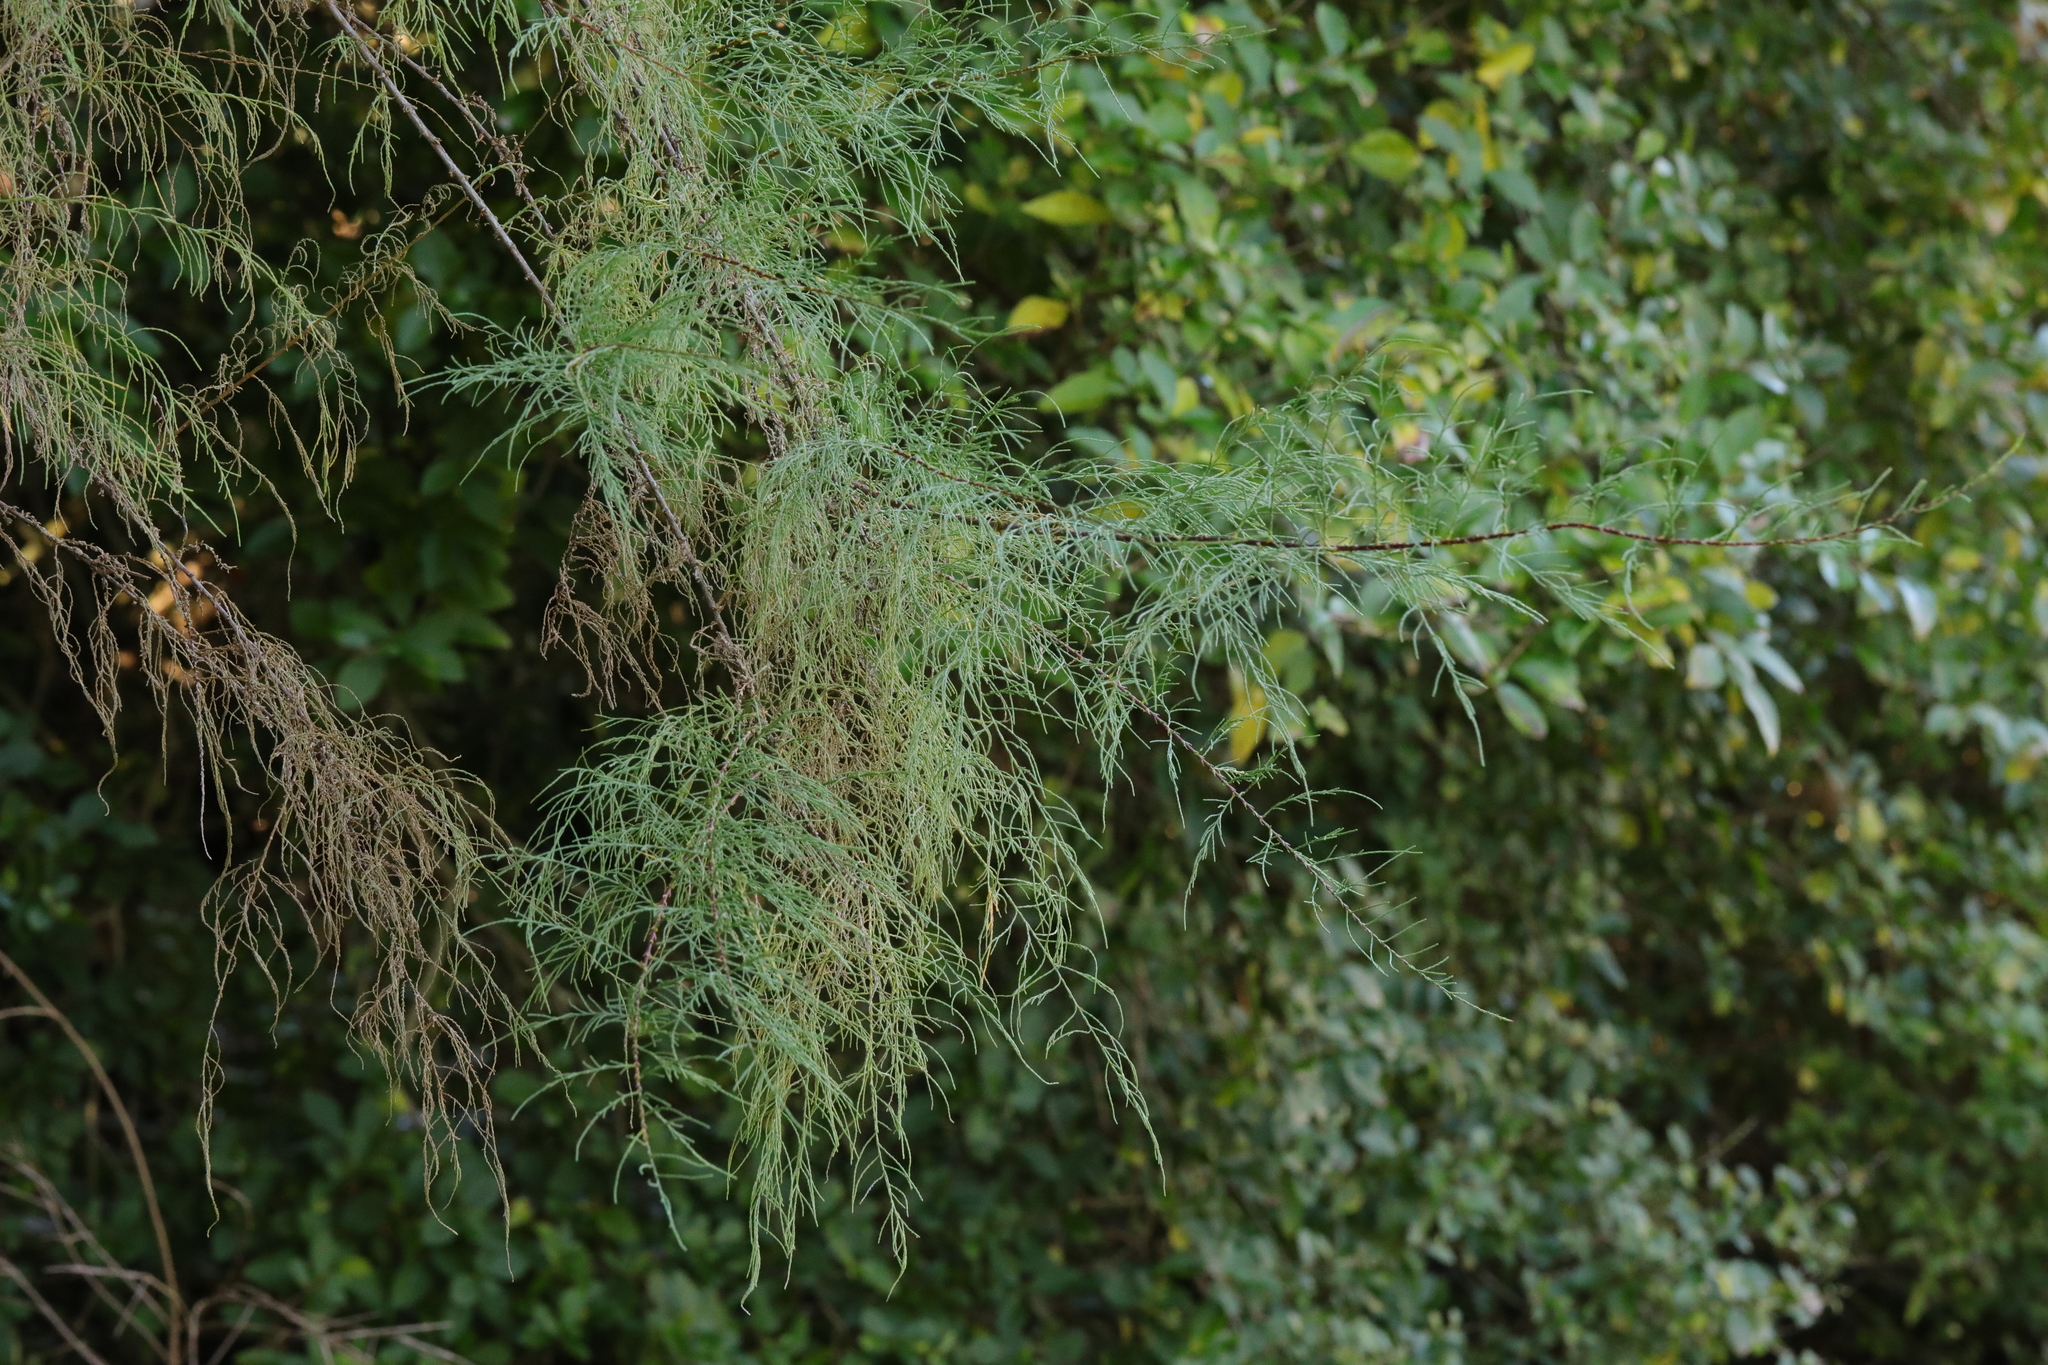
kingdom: Plantae
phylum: Tracheophyta
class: Magnoliopsida
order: Caryophyllales
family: Tamaricaceae
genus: Tamarix
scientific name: Tamarix ramosissima
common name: Pink tamarisk
